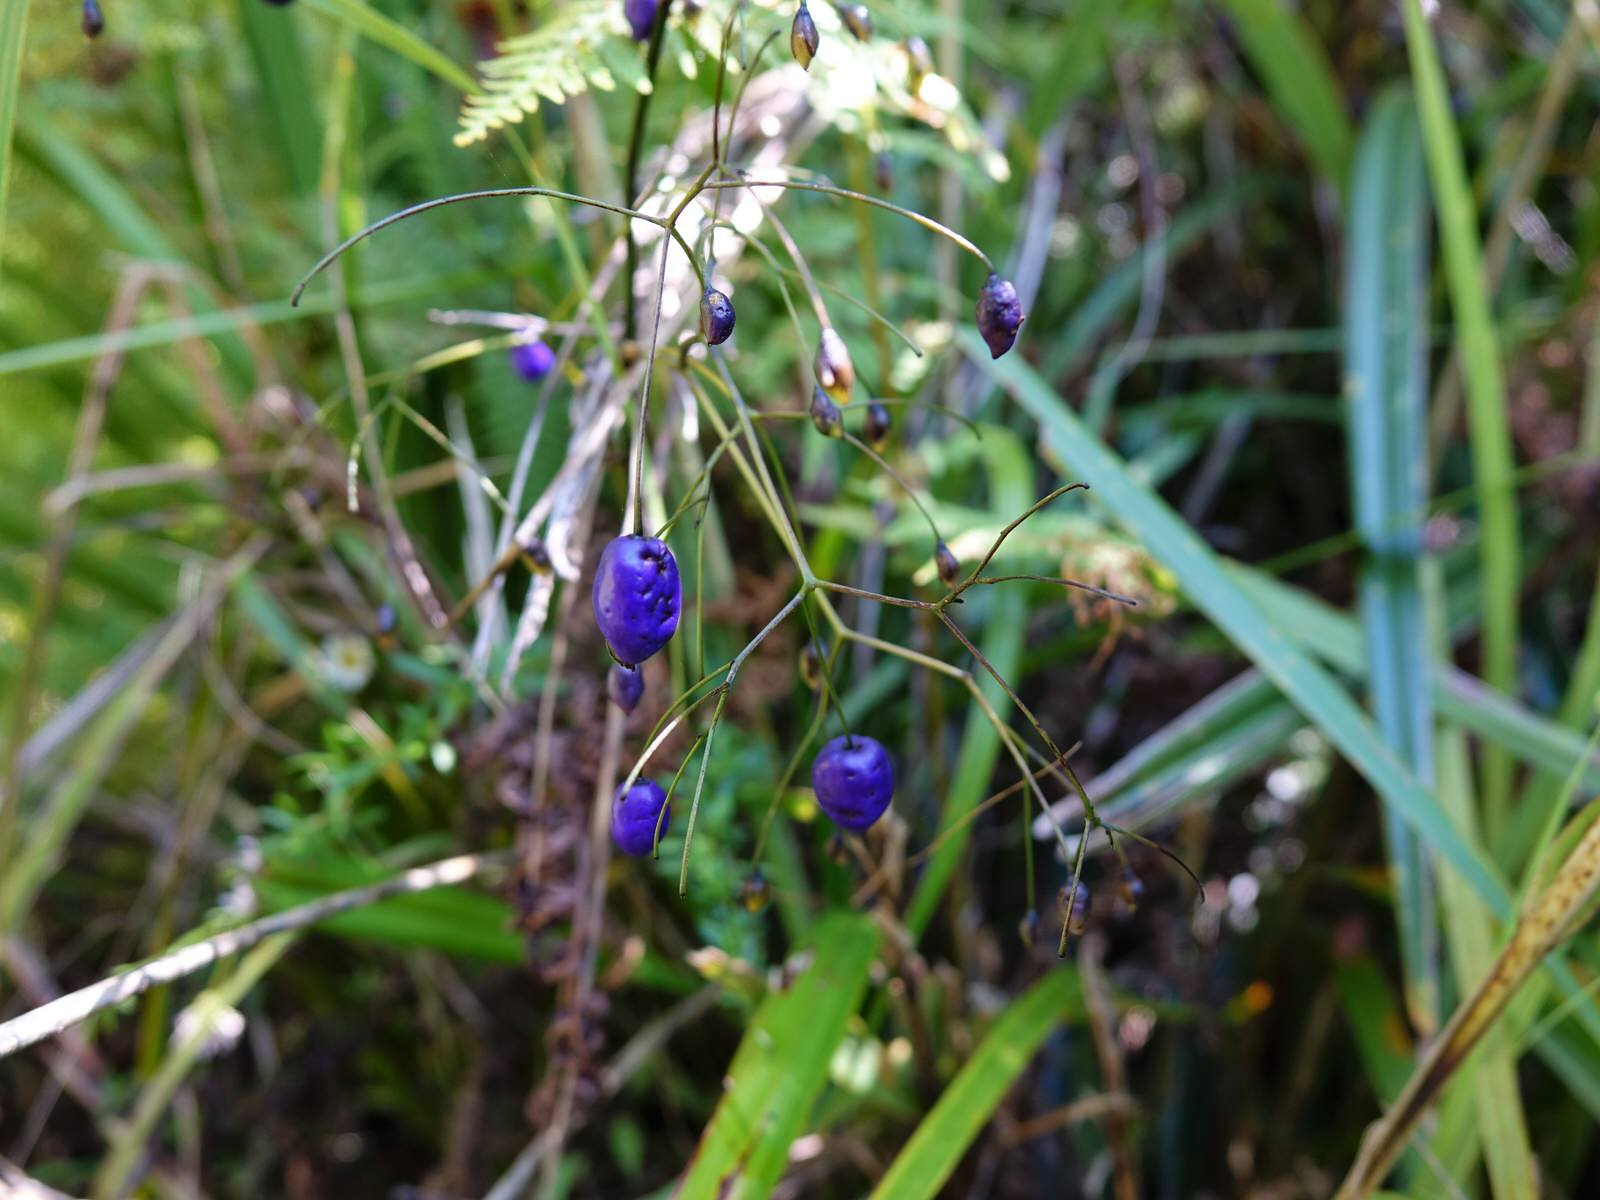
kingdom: Plantae
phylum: Tracheophyta
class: Liliopsida
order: Asparagales
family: Asphodelaceae
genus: Dianella
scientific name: Dianella nigra
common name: New zealand-blueberry
